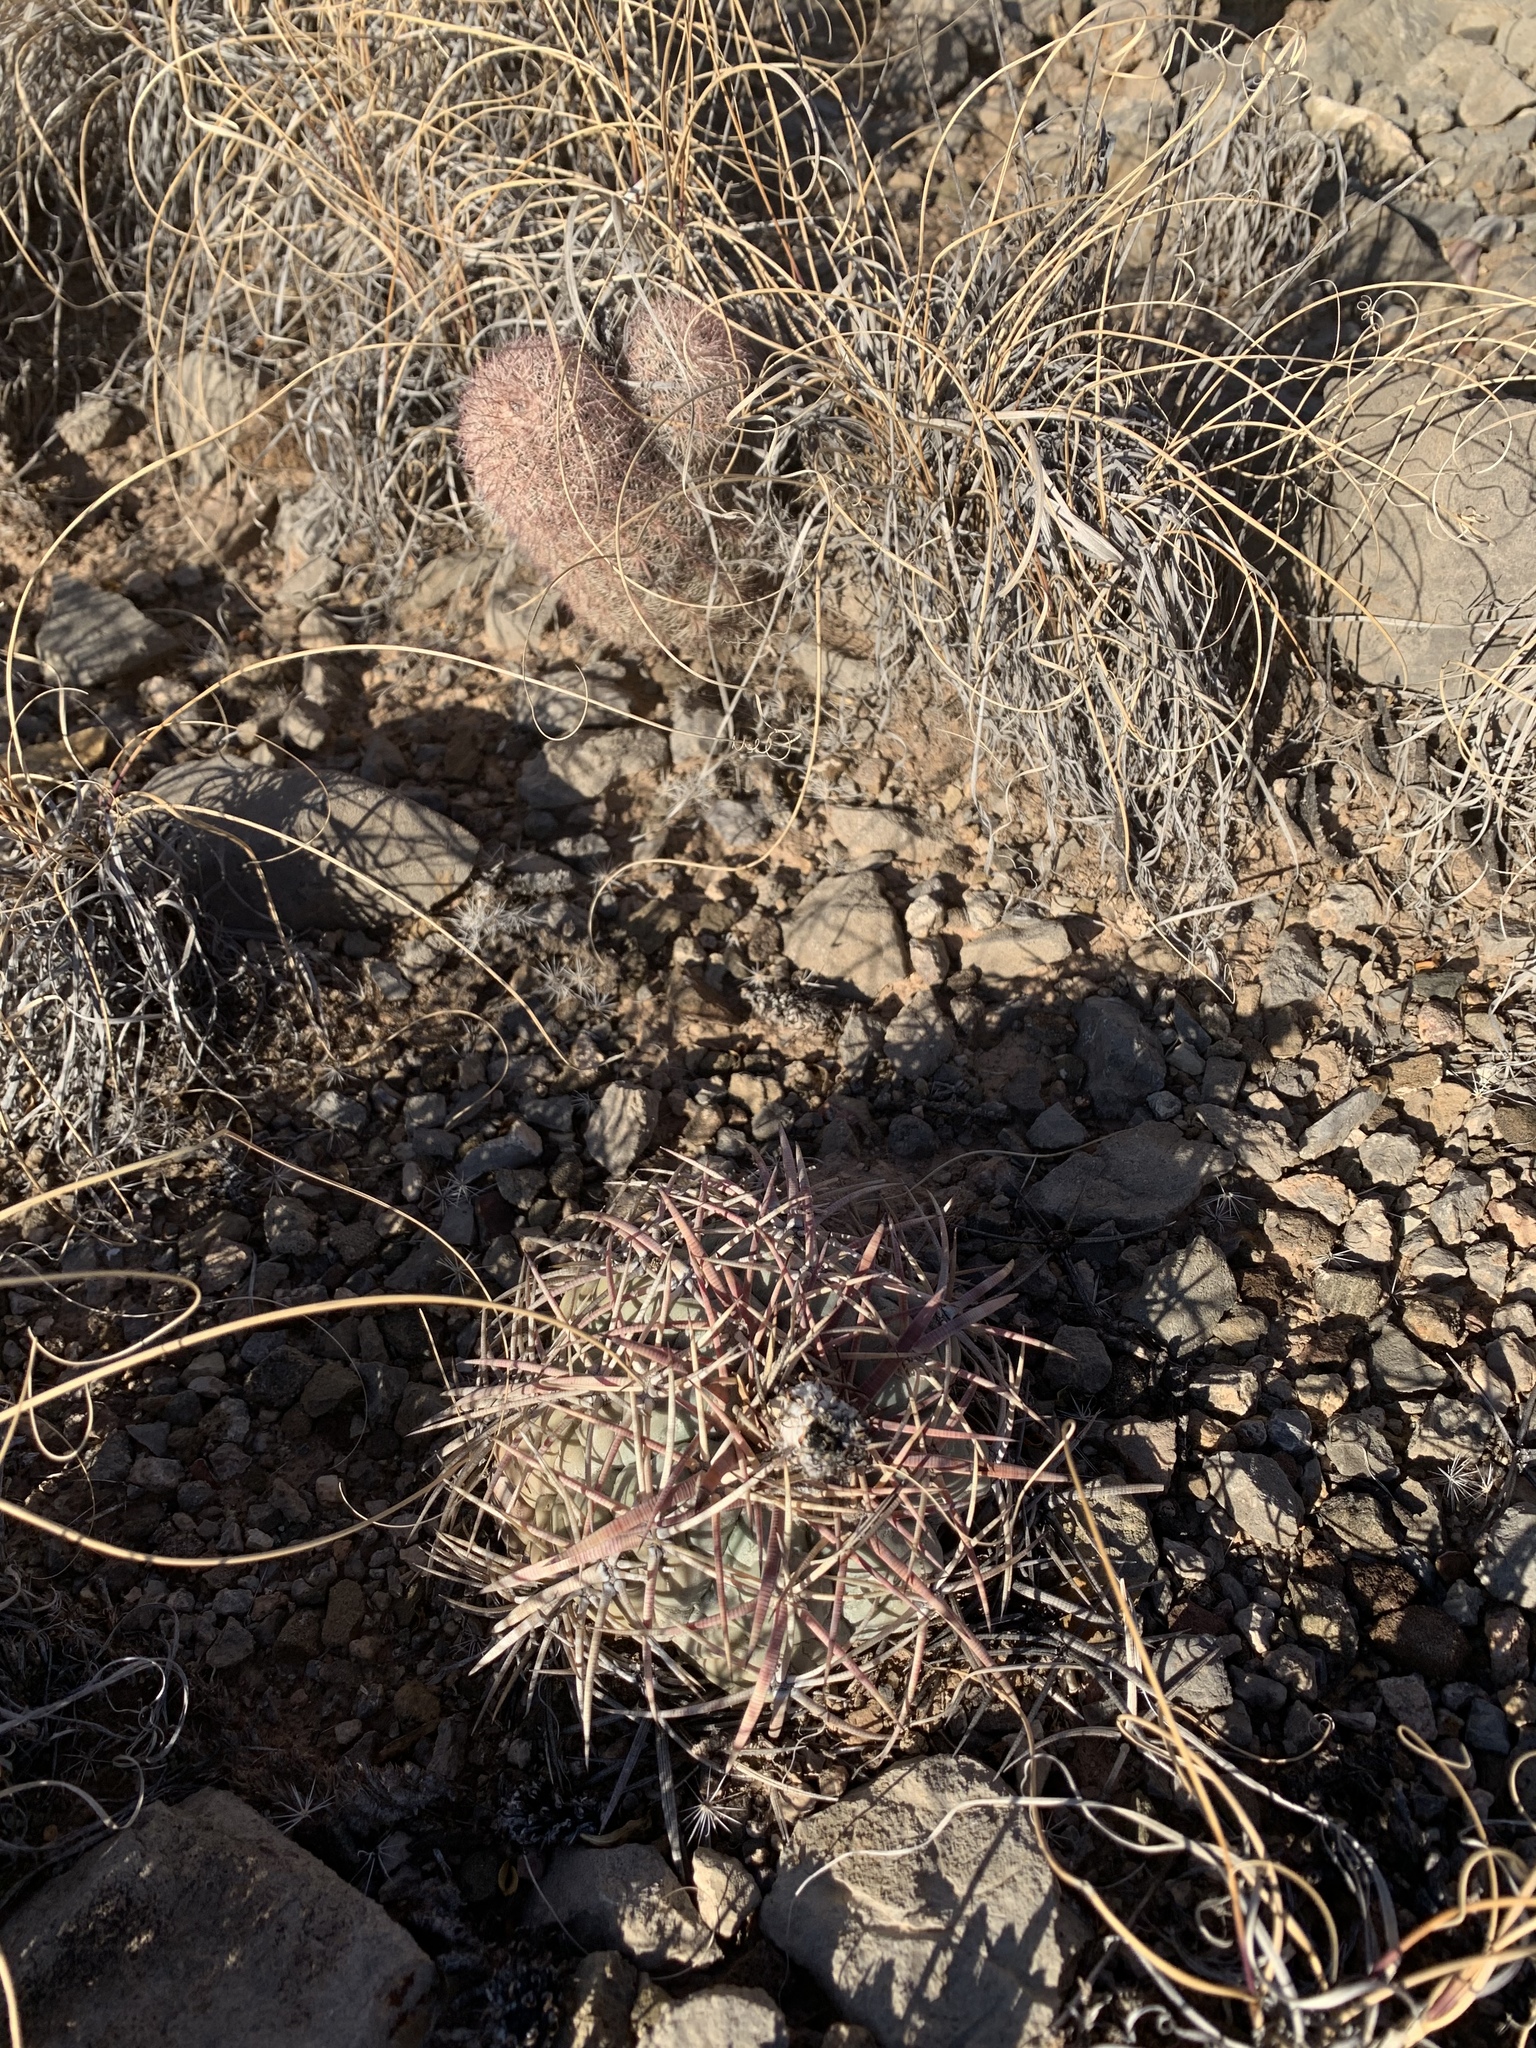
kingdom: Plantae
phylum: Tracheophyta
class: Magnoliopsida
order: Caryophyllales
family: Cactaceae
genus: Echinocactus
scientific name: Echinocactus horizonthalonius
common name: Devilshead
